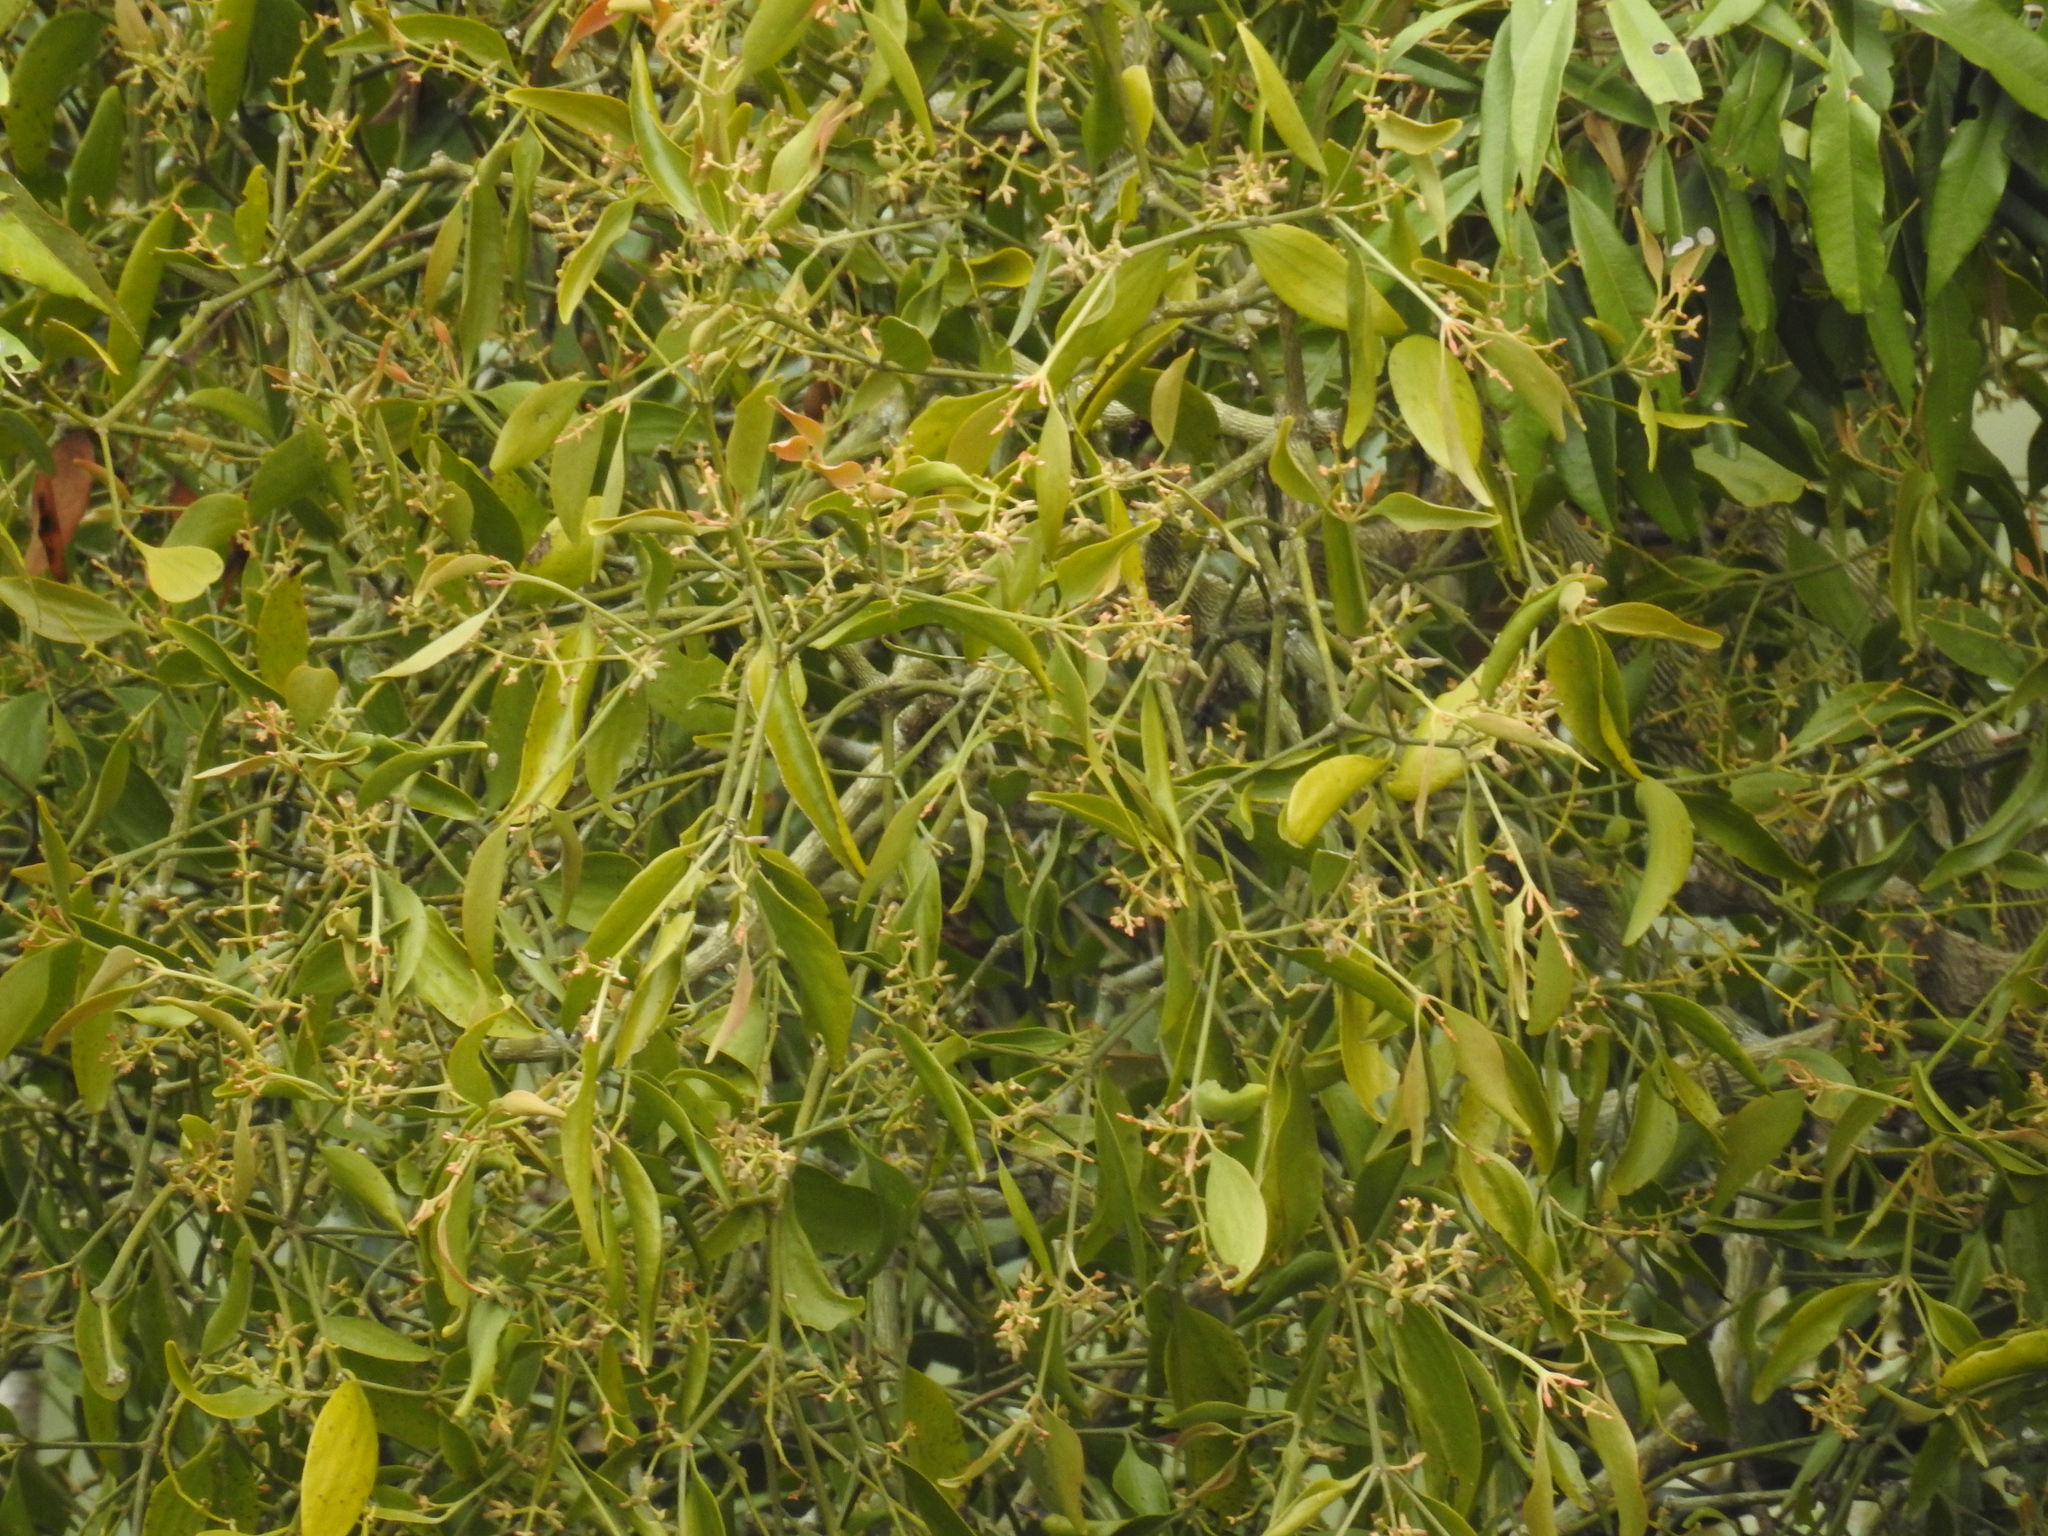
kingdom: Plantae
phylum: Tracheophyta
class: Magnoliopsida
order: Santalales
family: Viscaceae
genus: Notothixos
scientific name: Notothixos cornifolius
